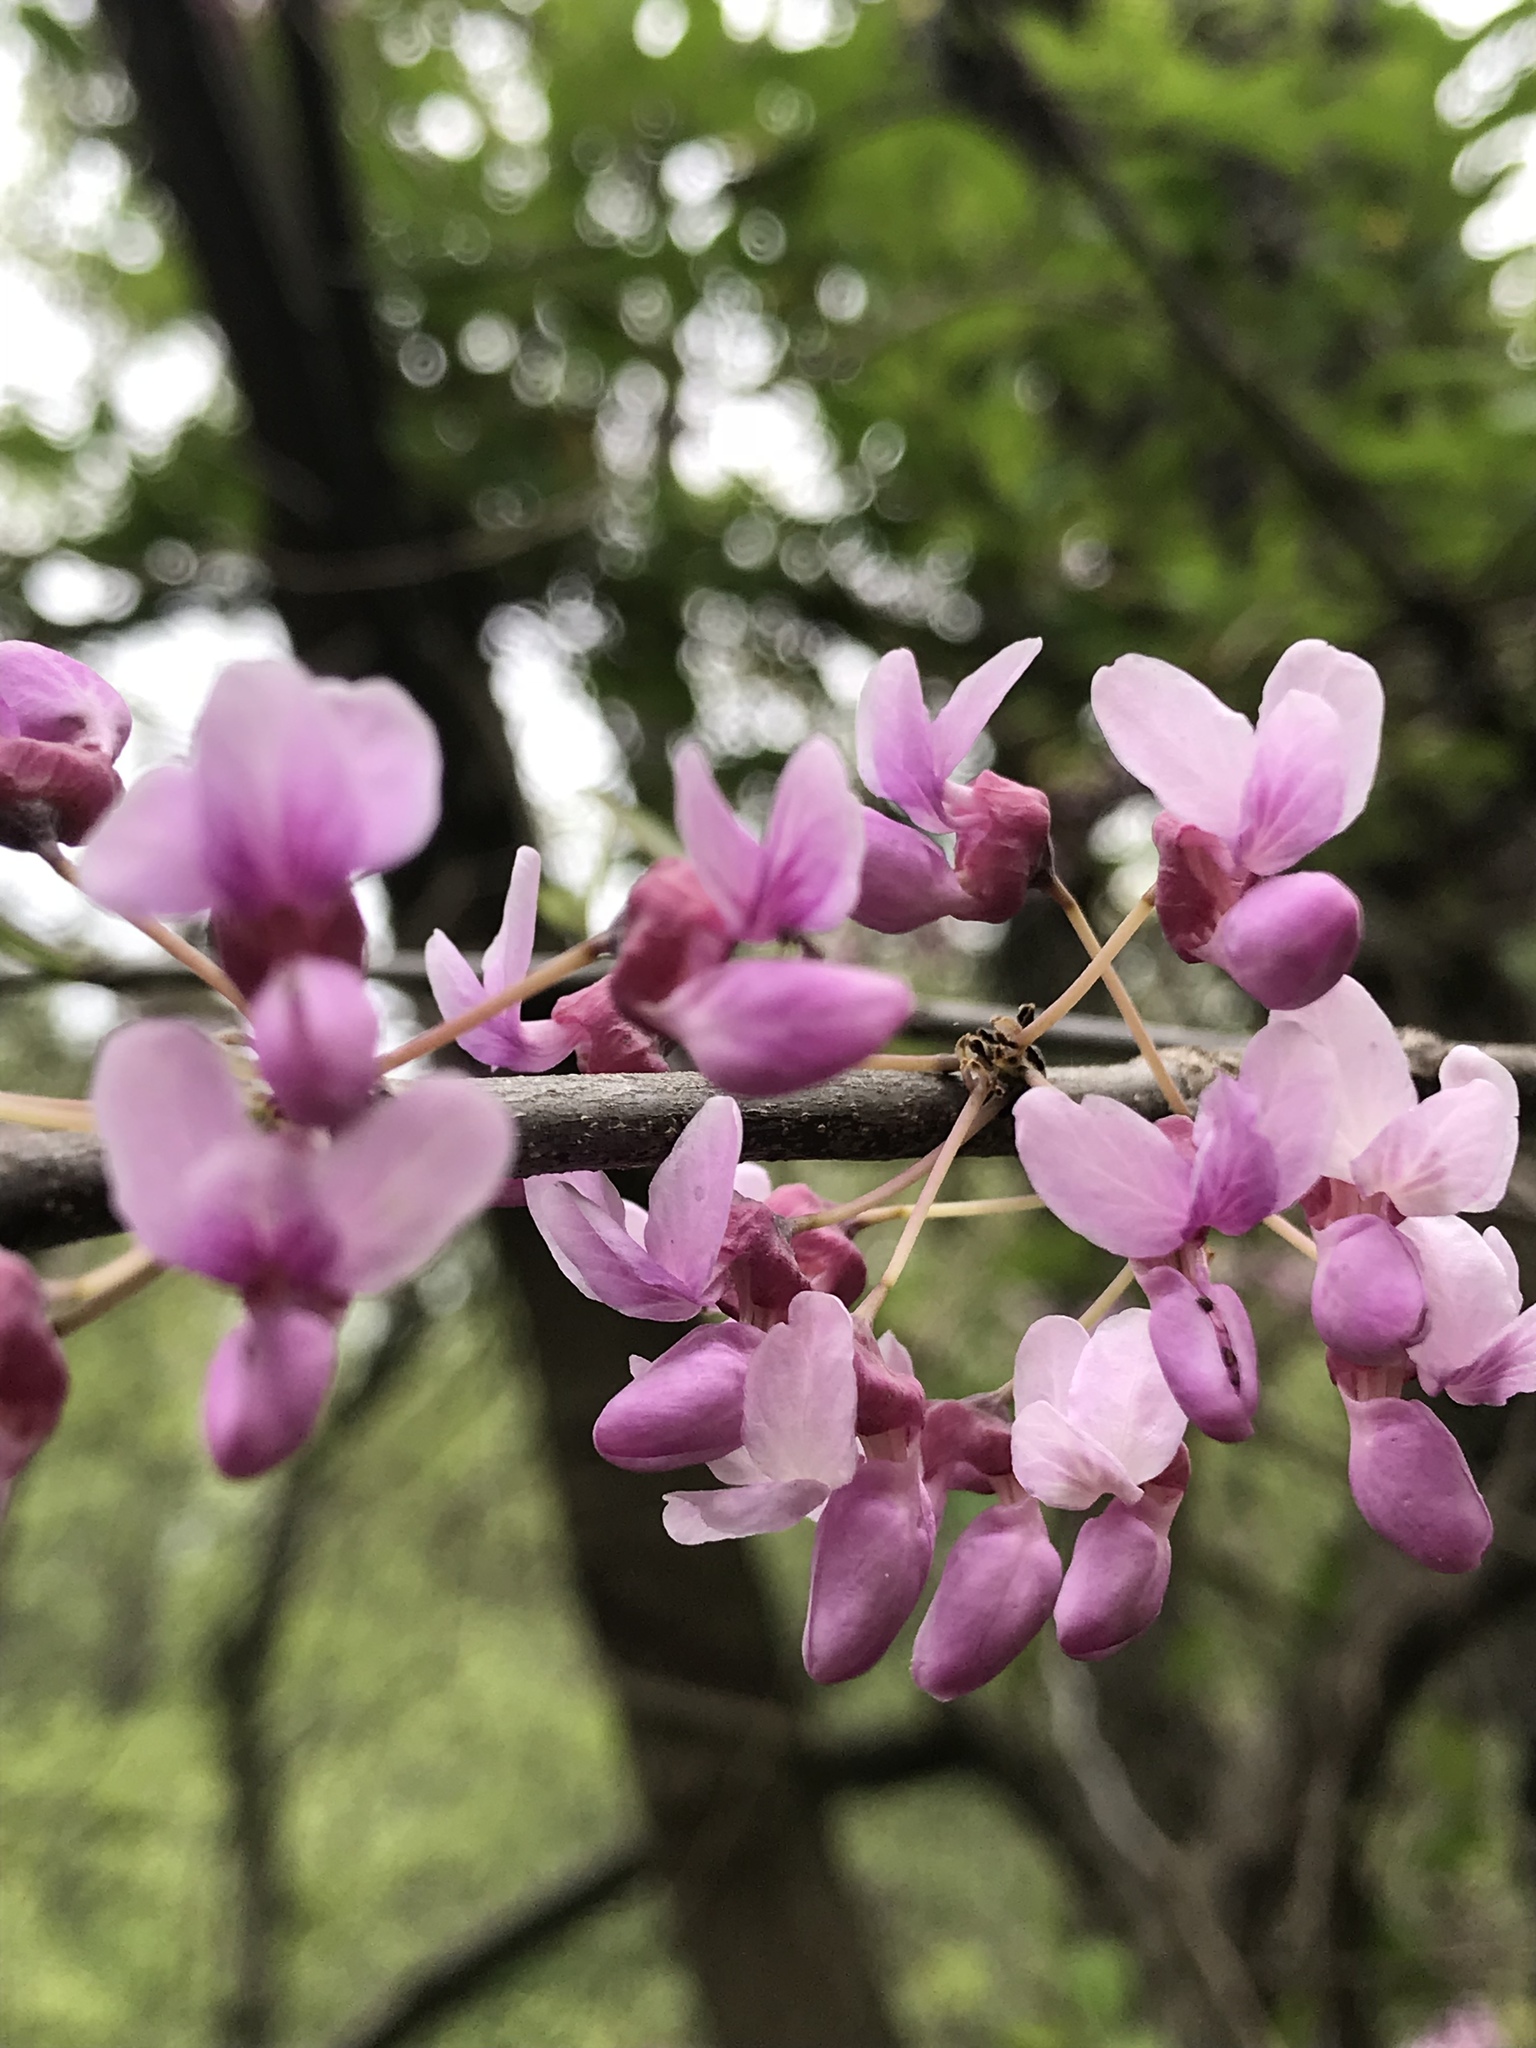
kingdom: Plantae
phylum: Tracheophyta
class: Magnoliopsida
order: Fabales
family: Fabaceae
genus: Cercis
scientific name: Cercis canadensis
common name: Eastern redbud
